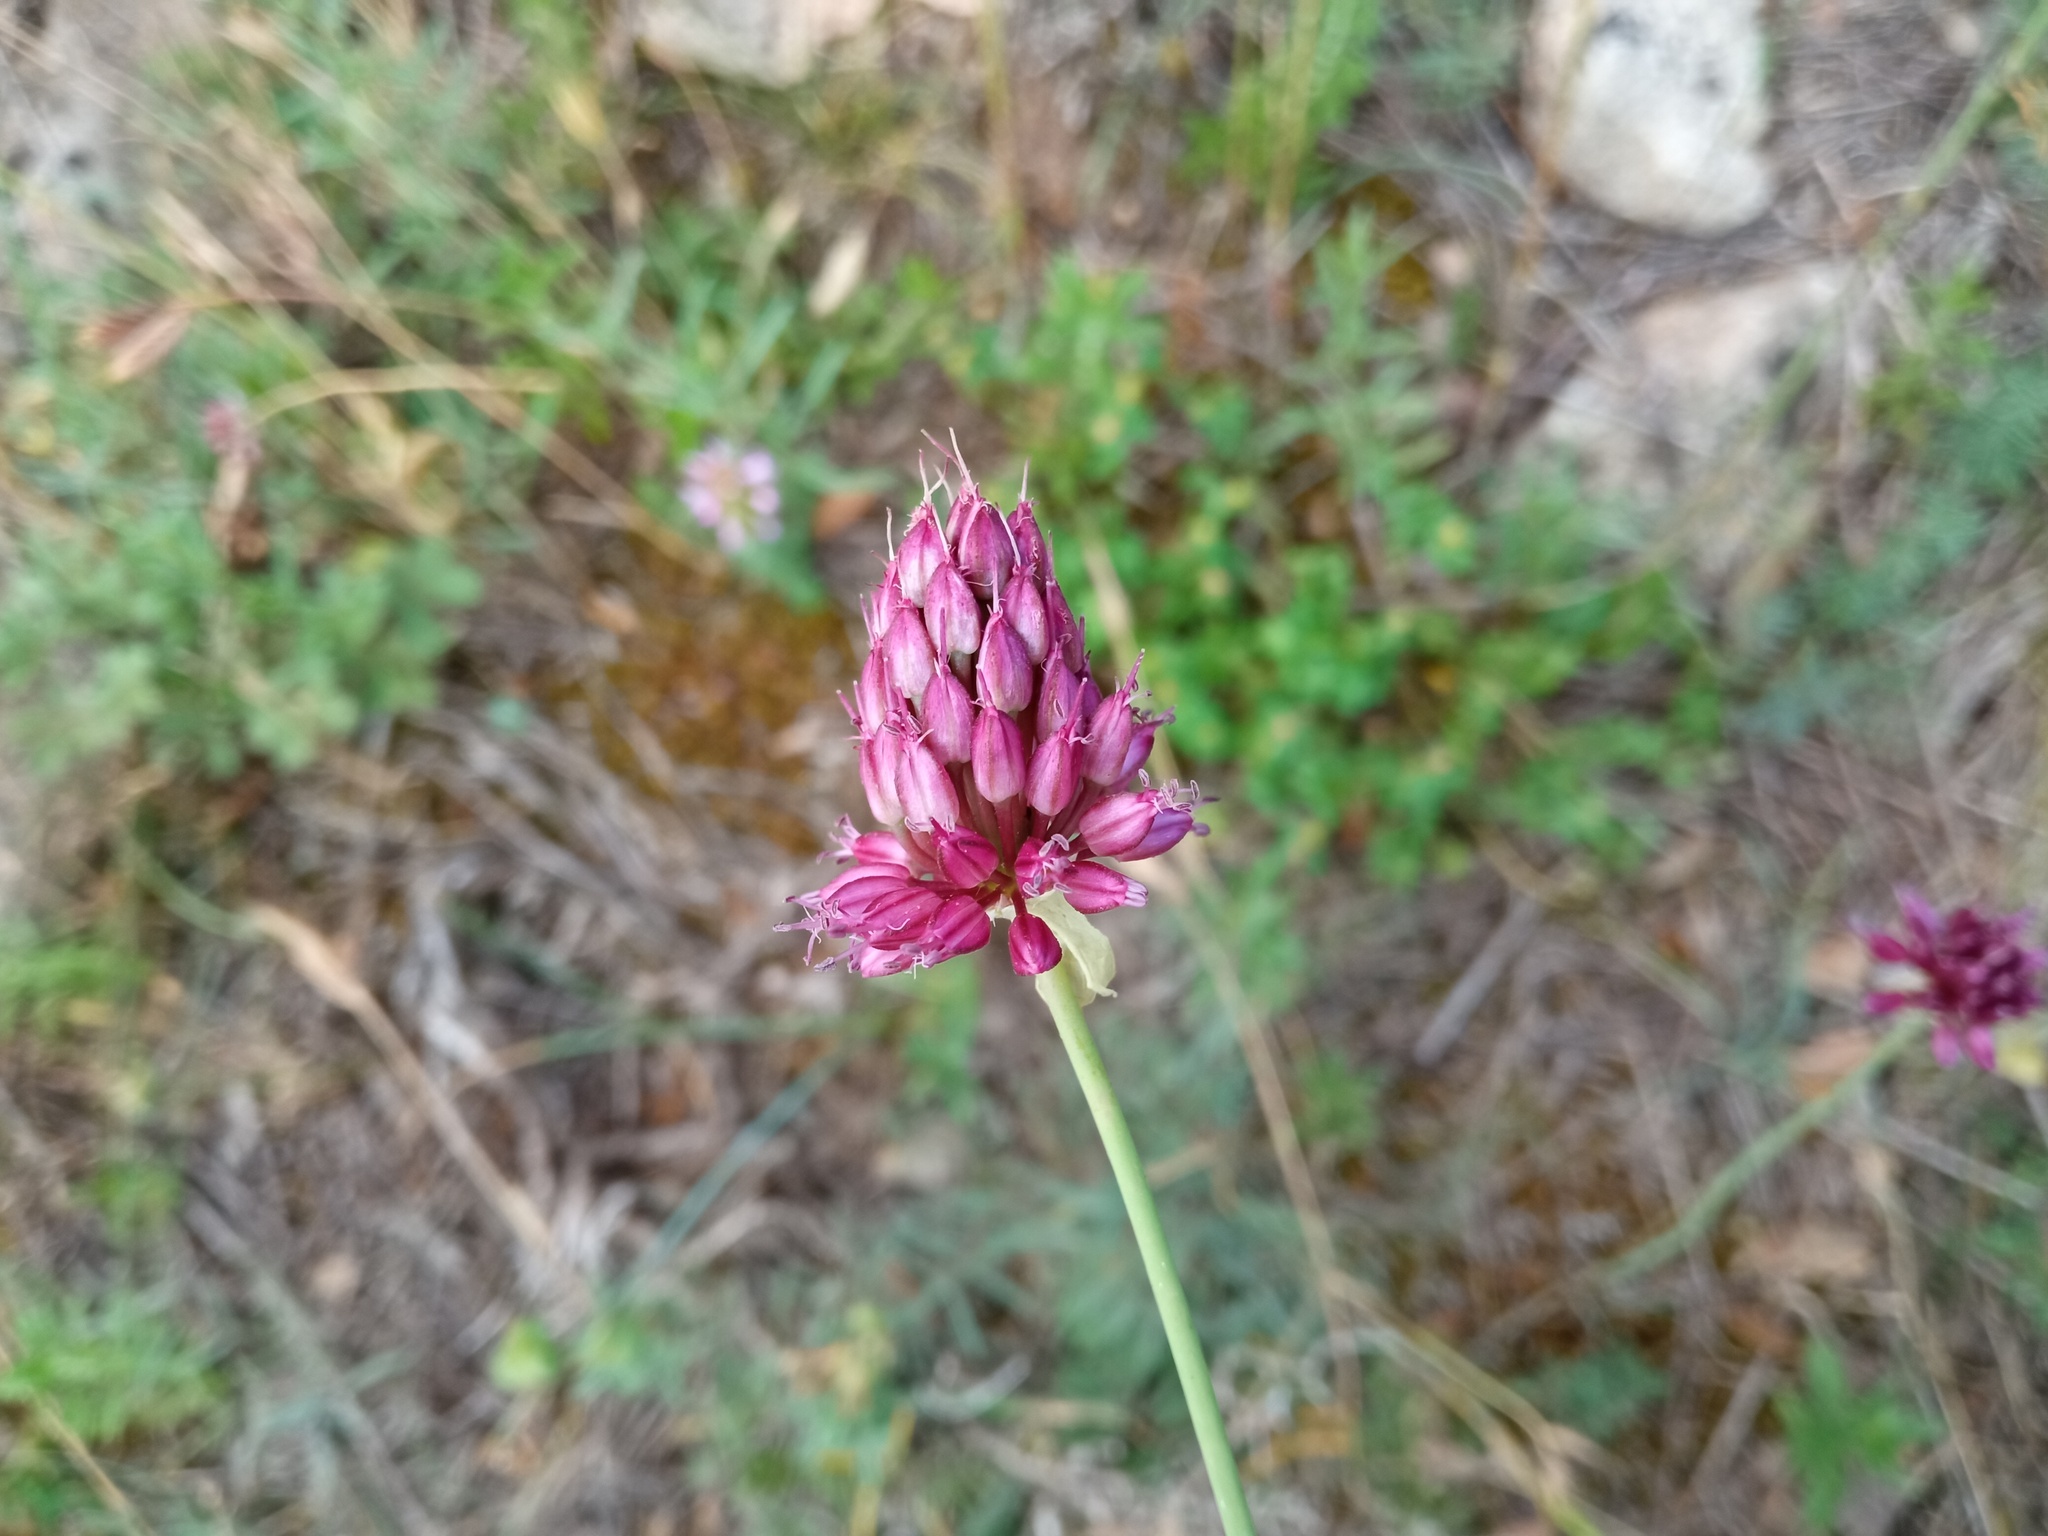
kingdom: Plantae
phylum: Tracheophyta
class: Liliopsida
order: Asparagales
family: Amaryllidaceae
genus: Allium
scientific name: Allium sphaerocephalon
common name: Round-headed leek
